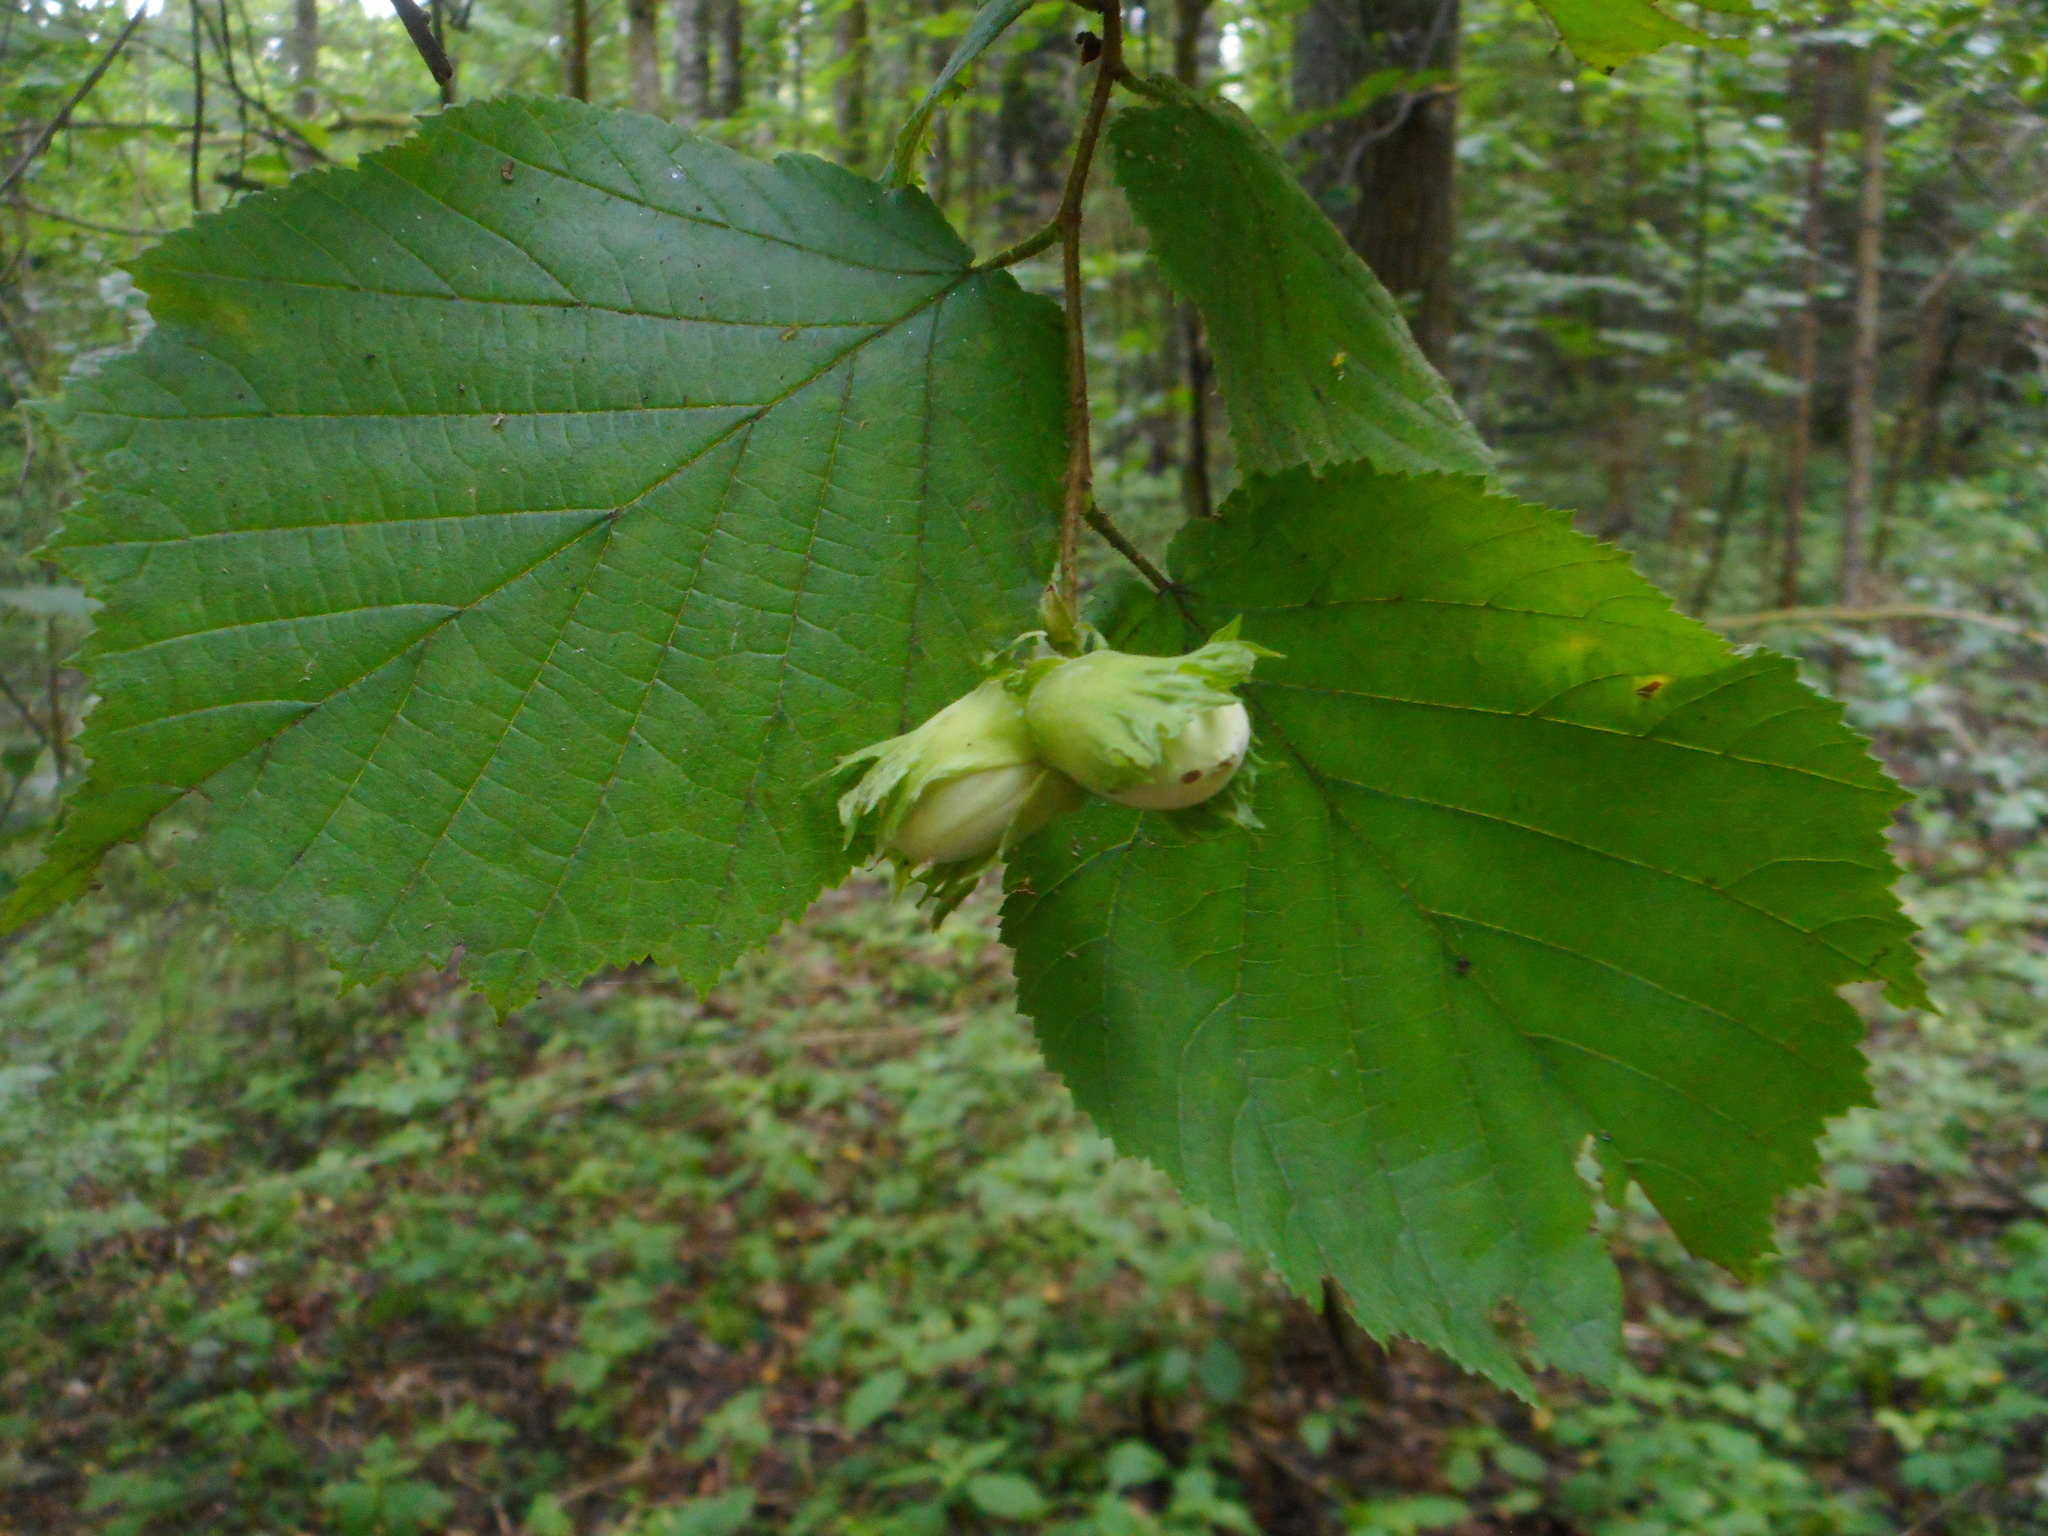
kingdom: Plantae
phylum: Tracheophyta
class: Magnoliopsida
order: Fagales
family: Betulaceae
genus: Corylus
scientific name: Corylus avellana
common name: European hazel
